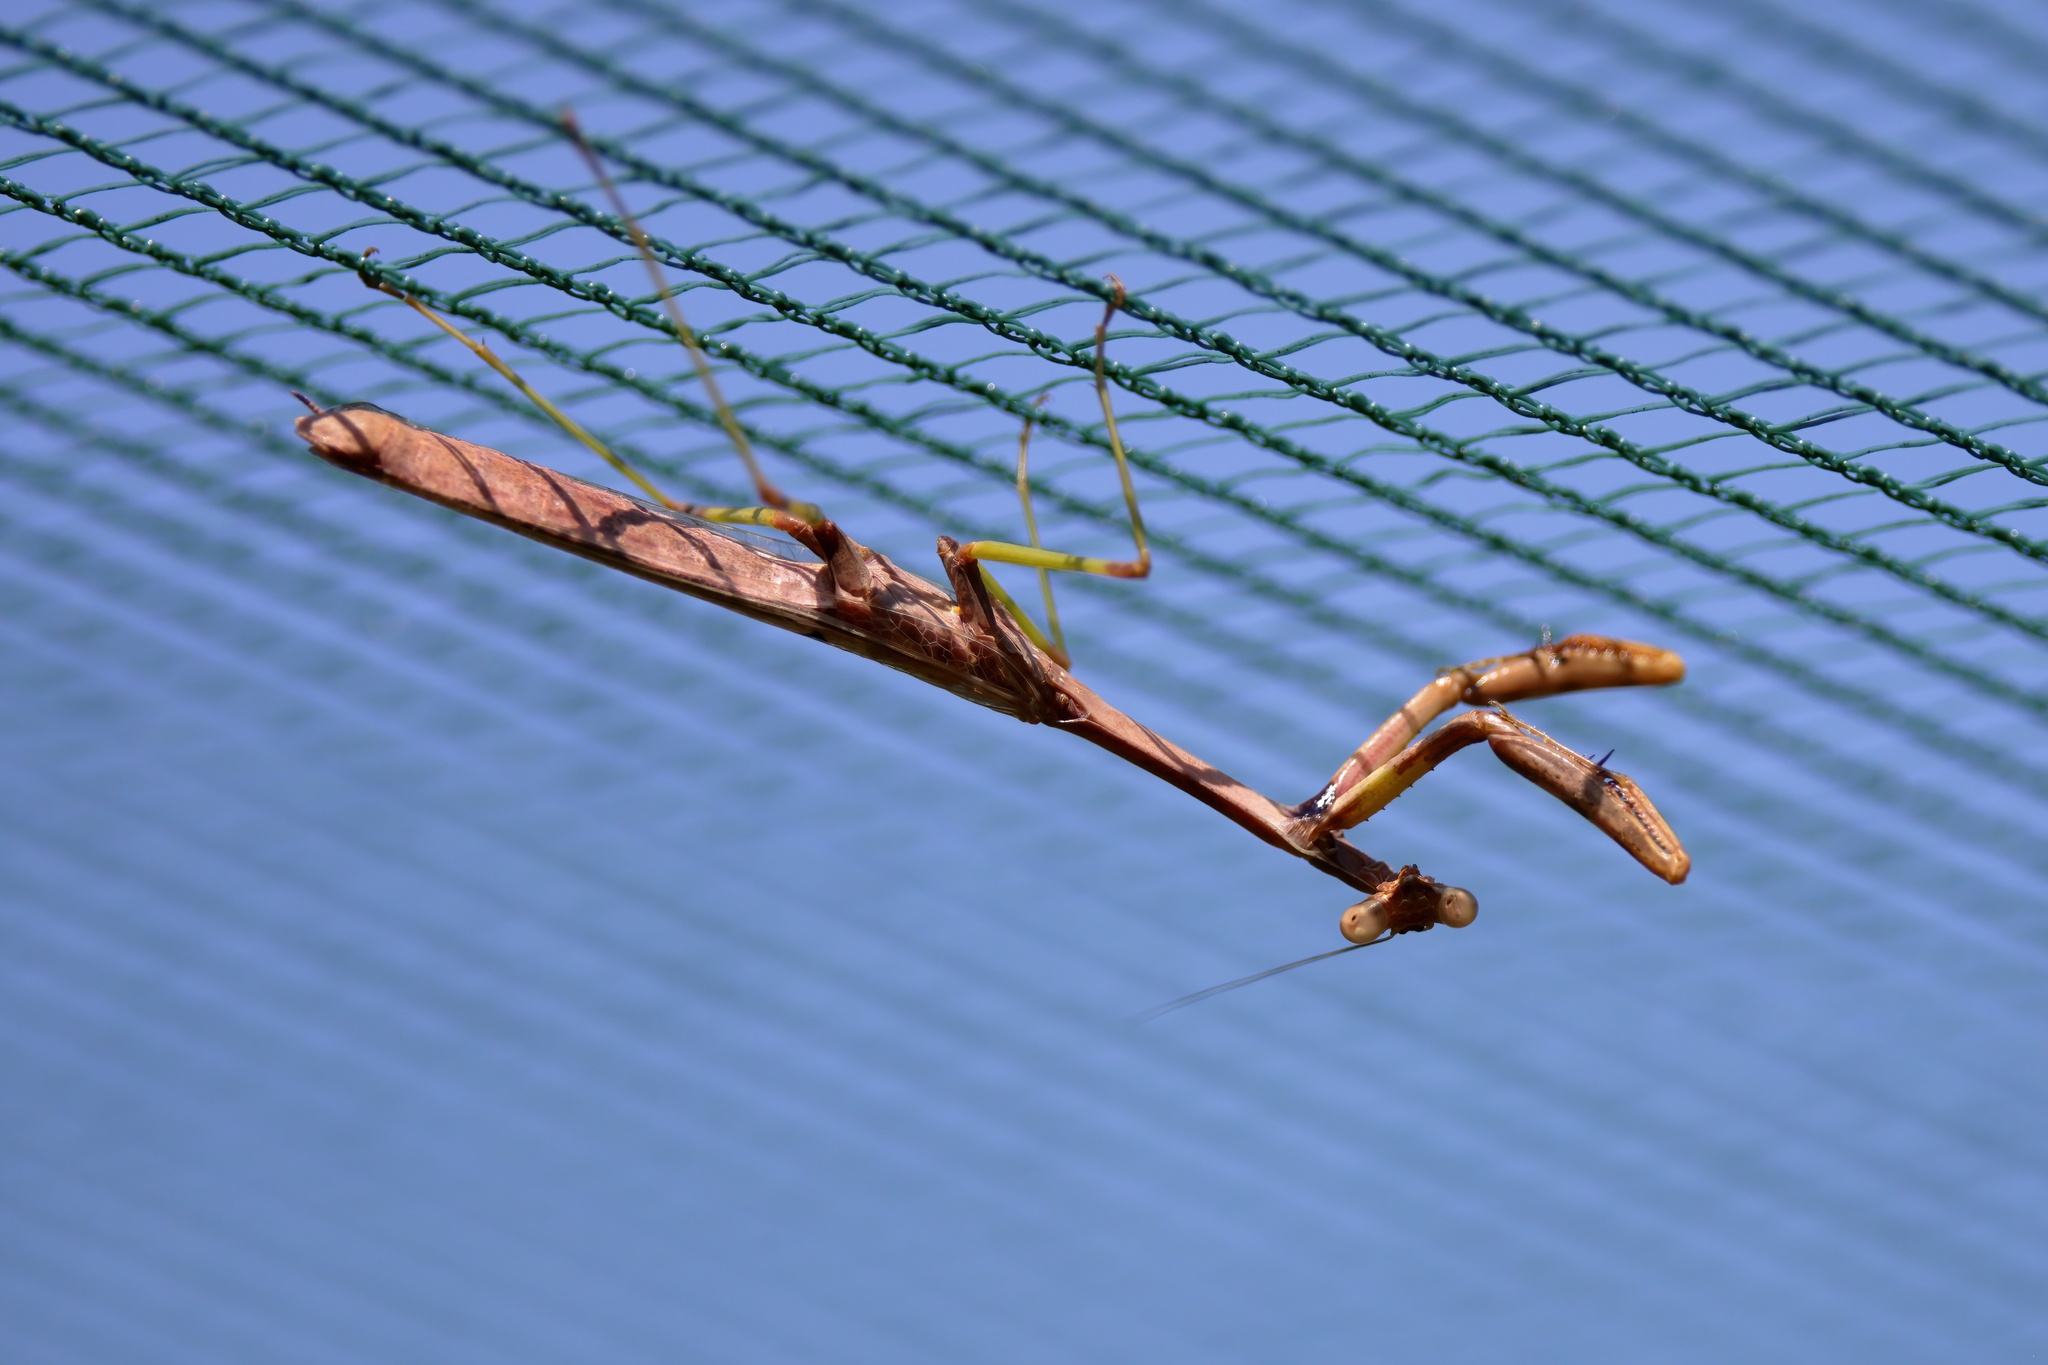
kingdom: Animalia
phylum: Arthropoda
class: Insecta
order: Mantodea
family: Mantidae
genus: Stagmomantis
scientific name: Stagmomantis carolina
